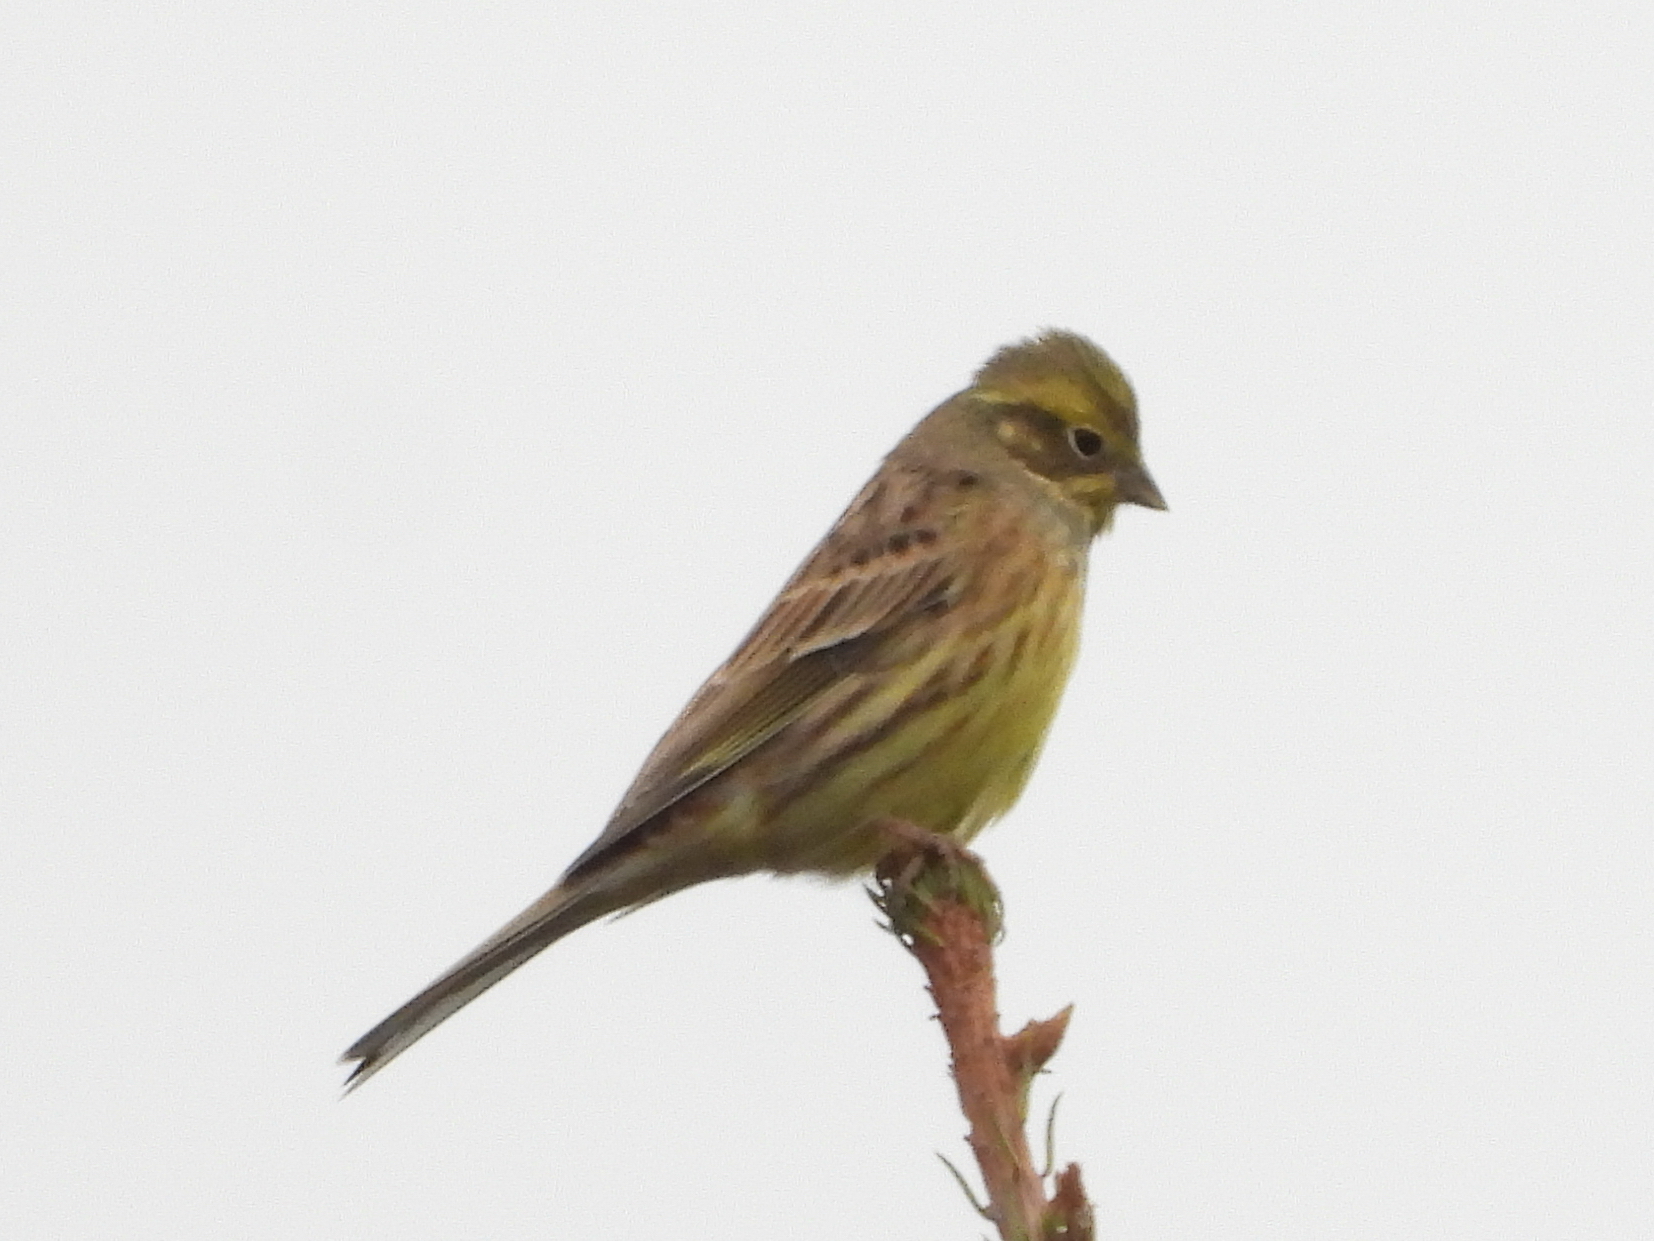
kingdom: Animalia
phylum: Chordata
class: Aves
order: Passeriformes
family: Emberizidae
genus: Emberiza
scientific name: Emberiza citrinella
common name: Yellowhammer
